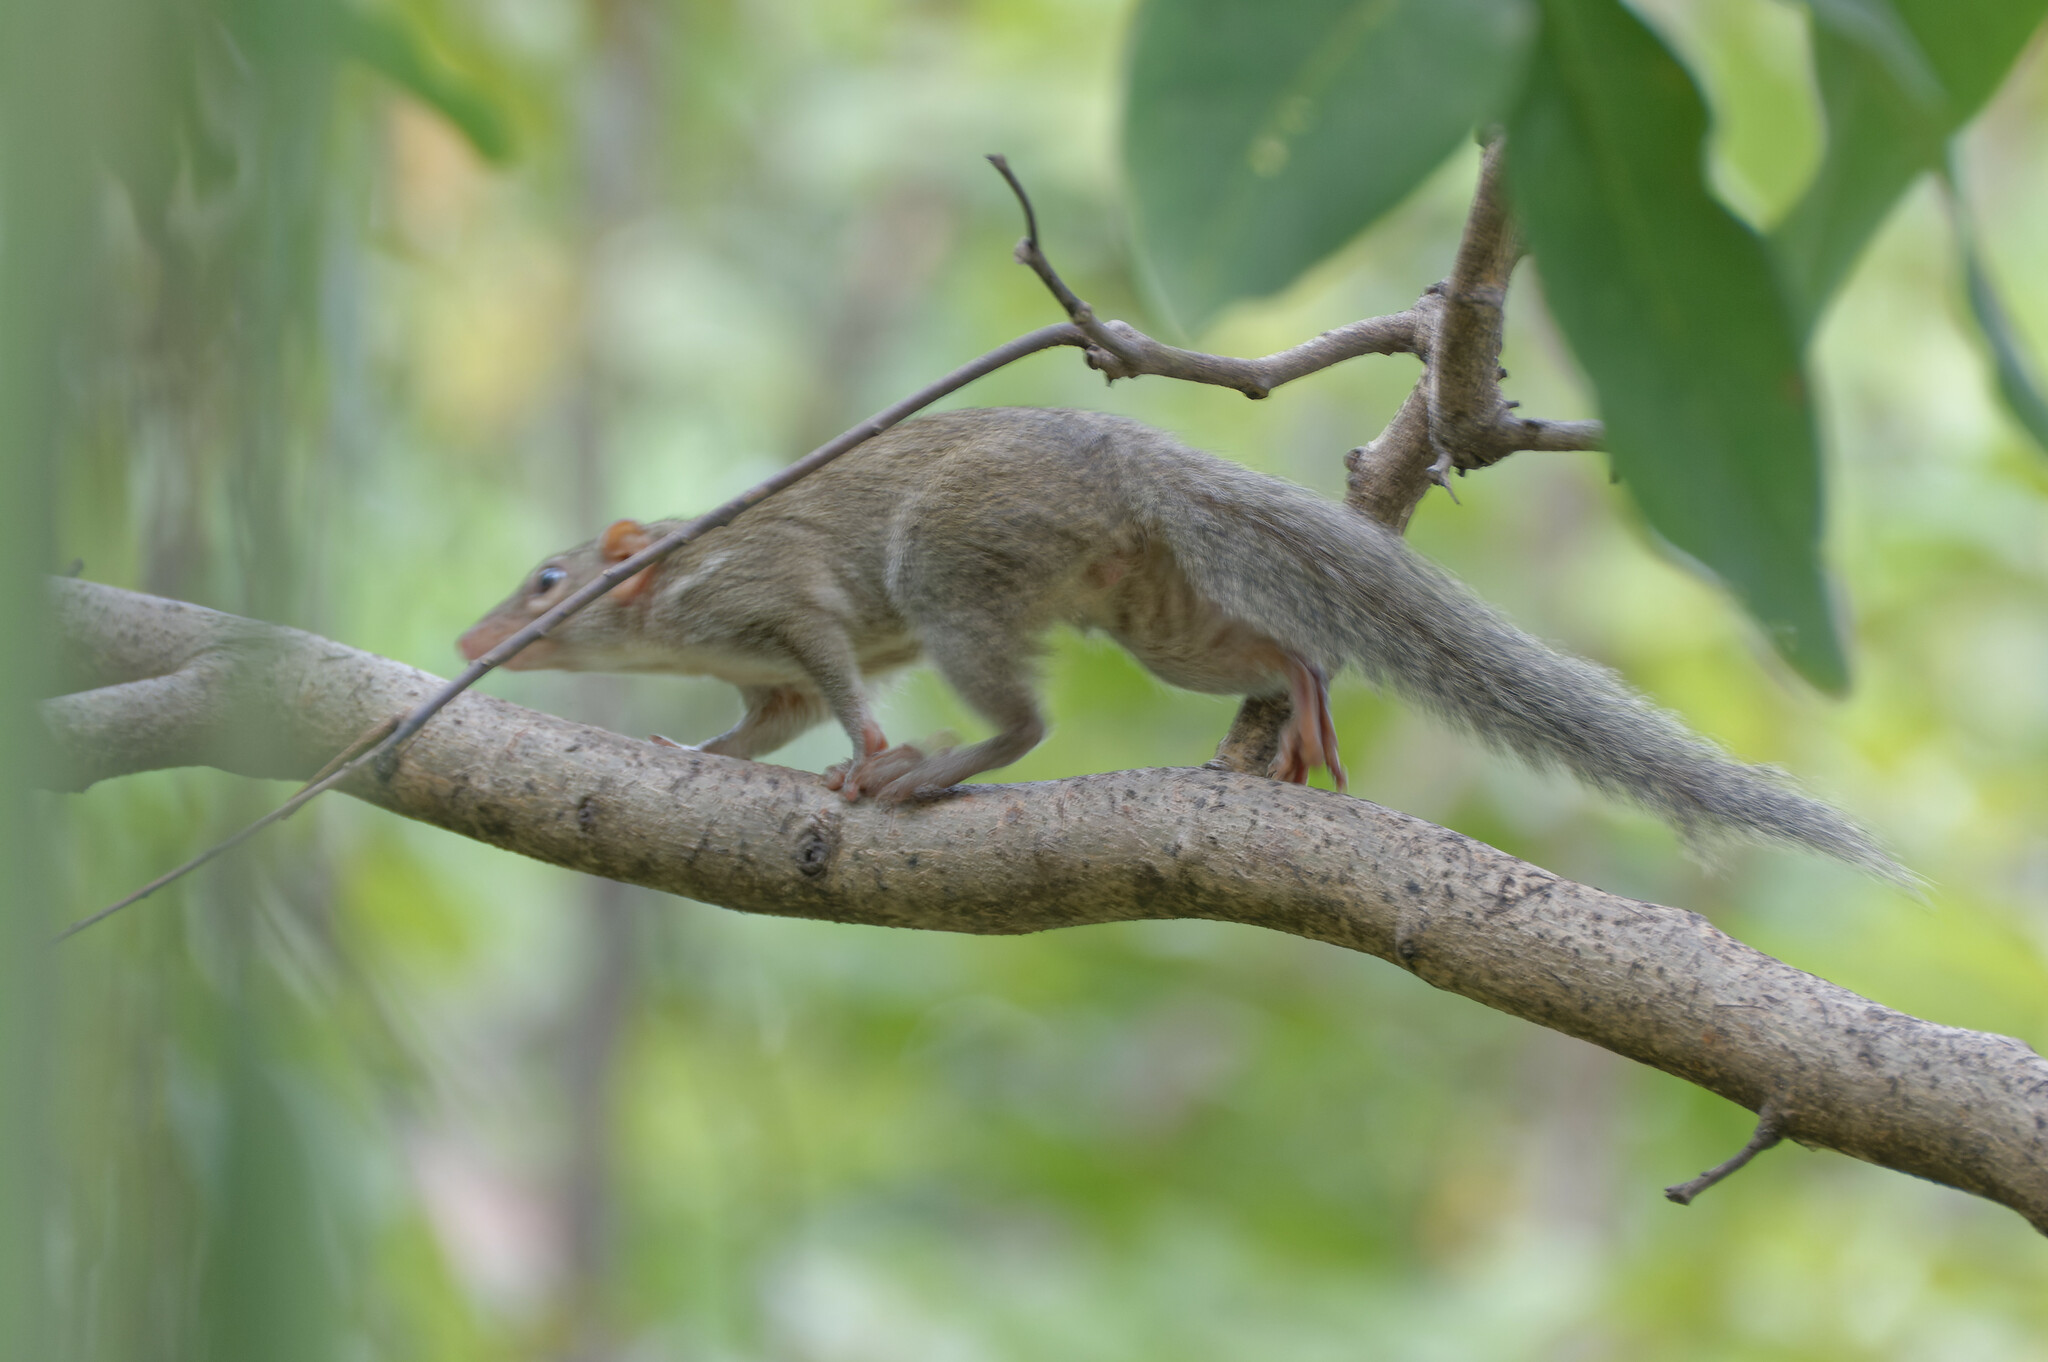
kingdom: Animalia
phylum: Chordata
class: Mammalia
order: Scandentia
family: Tupaiidae
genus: Tupaia
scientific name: Tupaia belangeri
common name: Northern treeshrew
